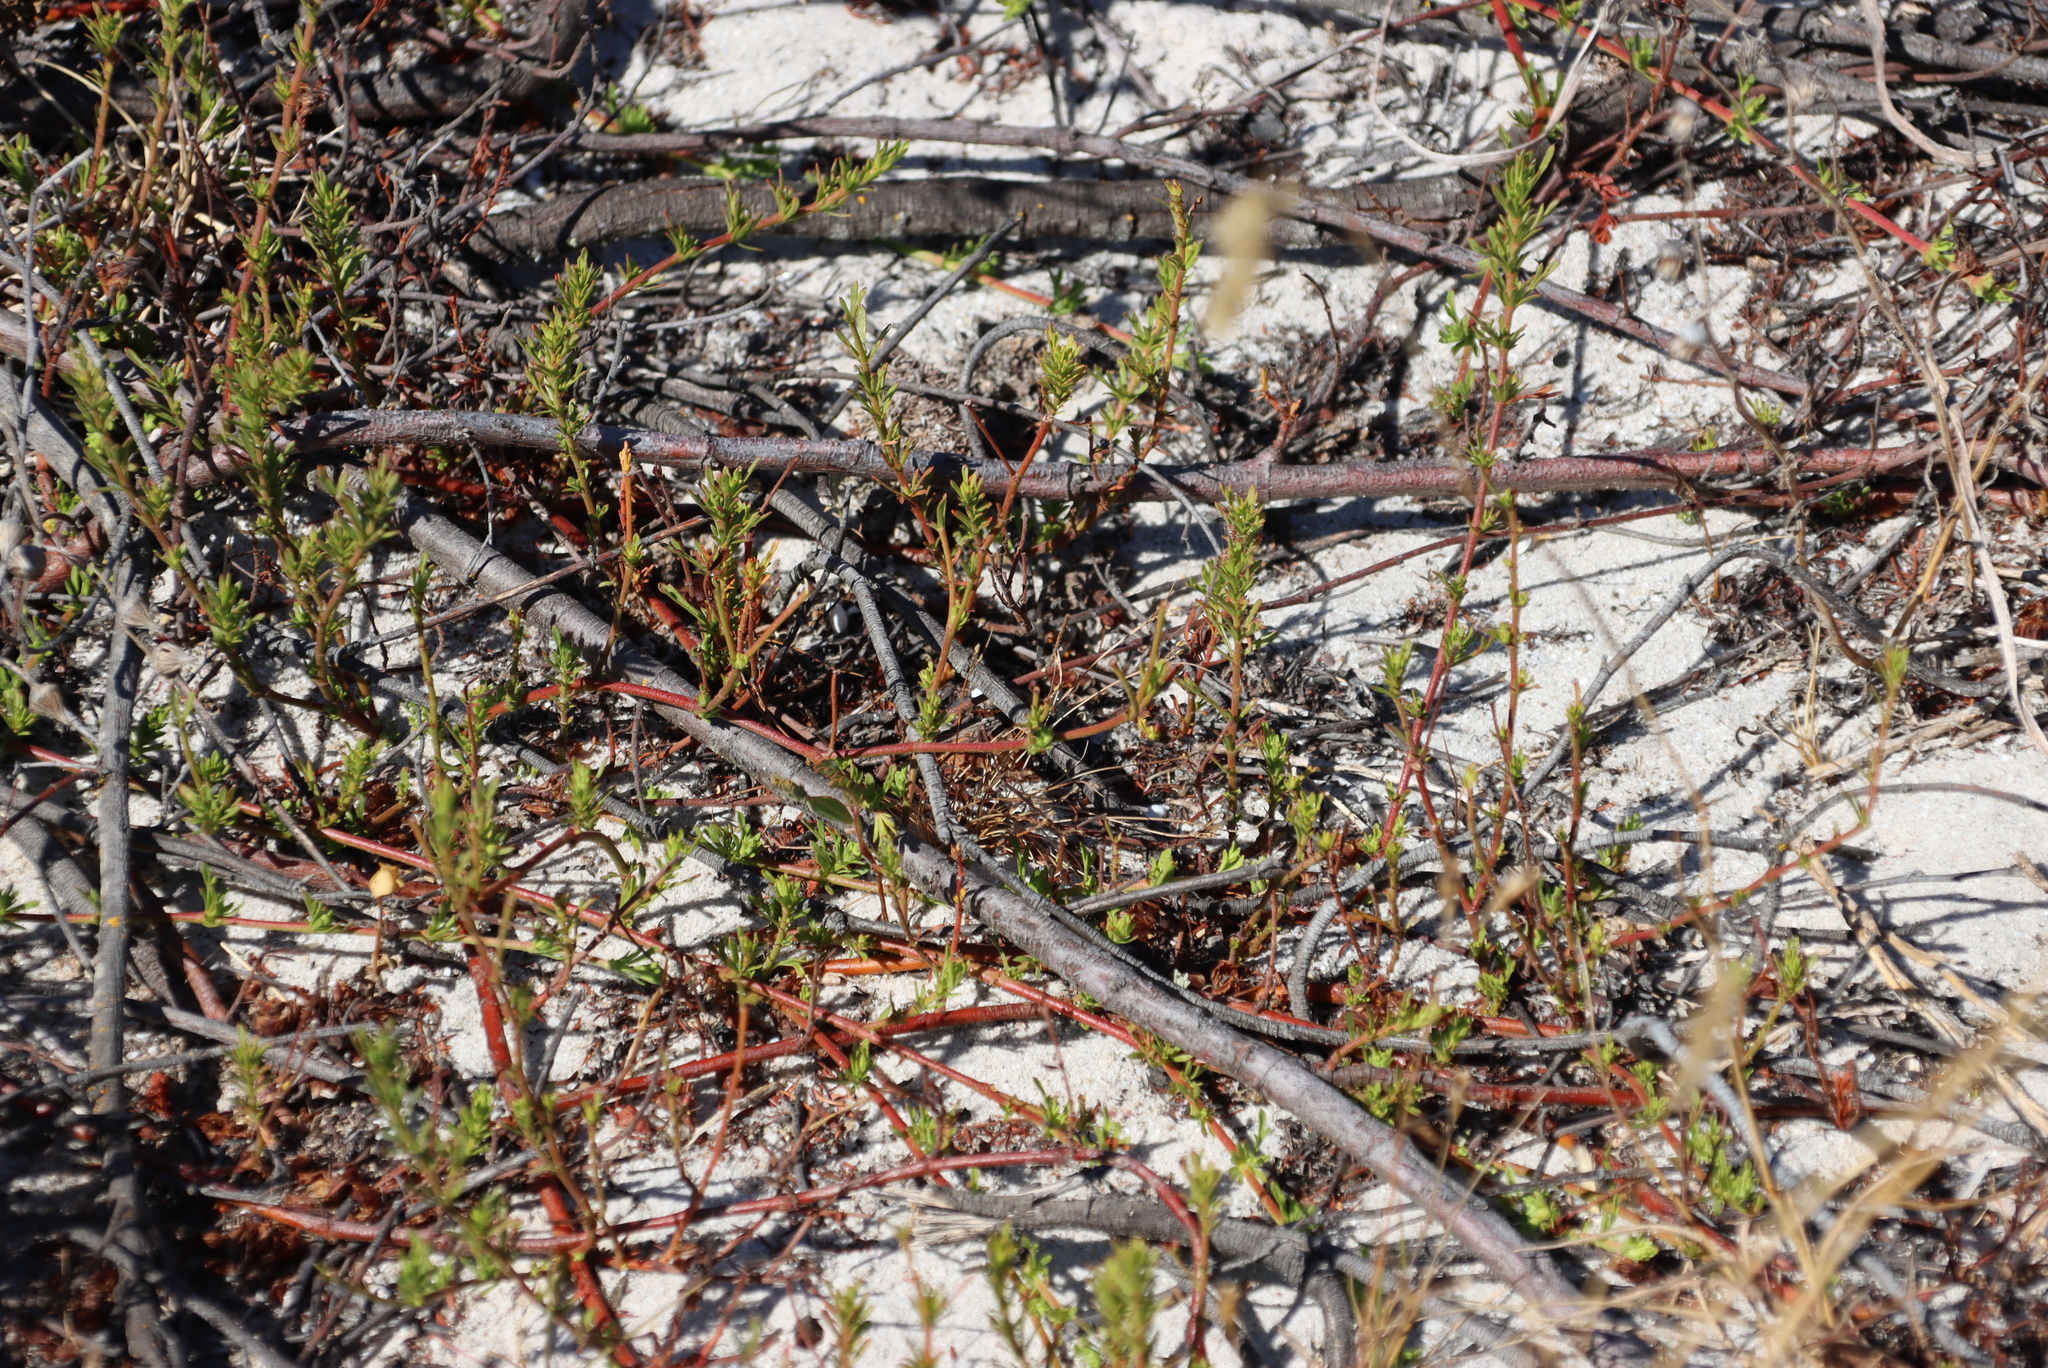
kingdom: Plantae
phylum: Tracheophyta
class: Magnoliopsida
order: Malvales
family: Malvaceae
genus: Hermannia
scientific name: Hermannia pinnata
